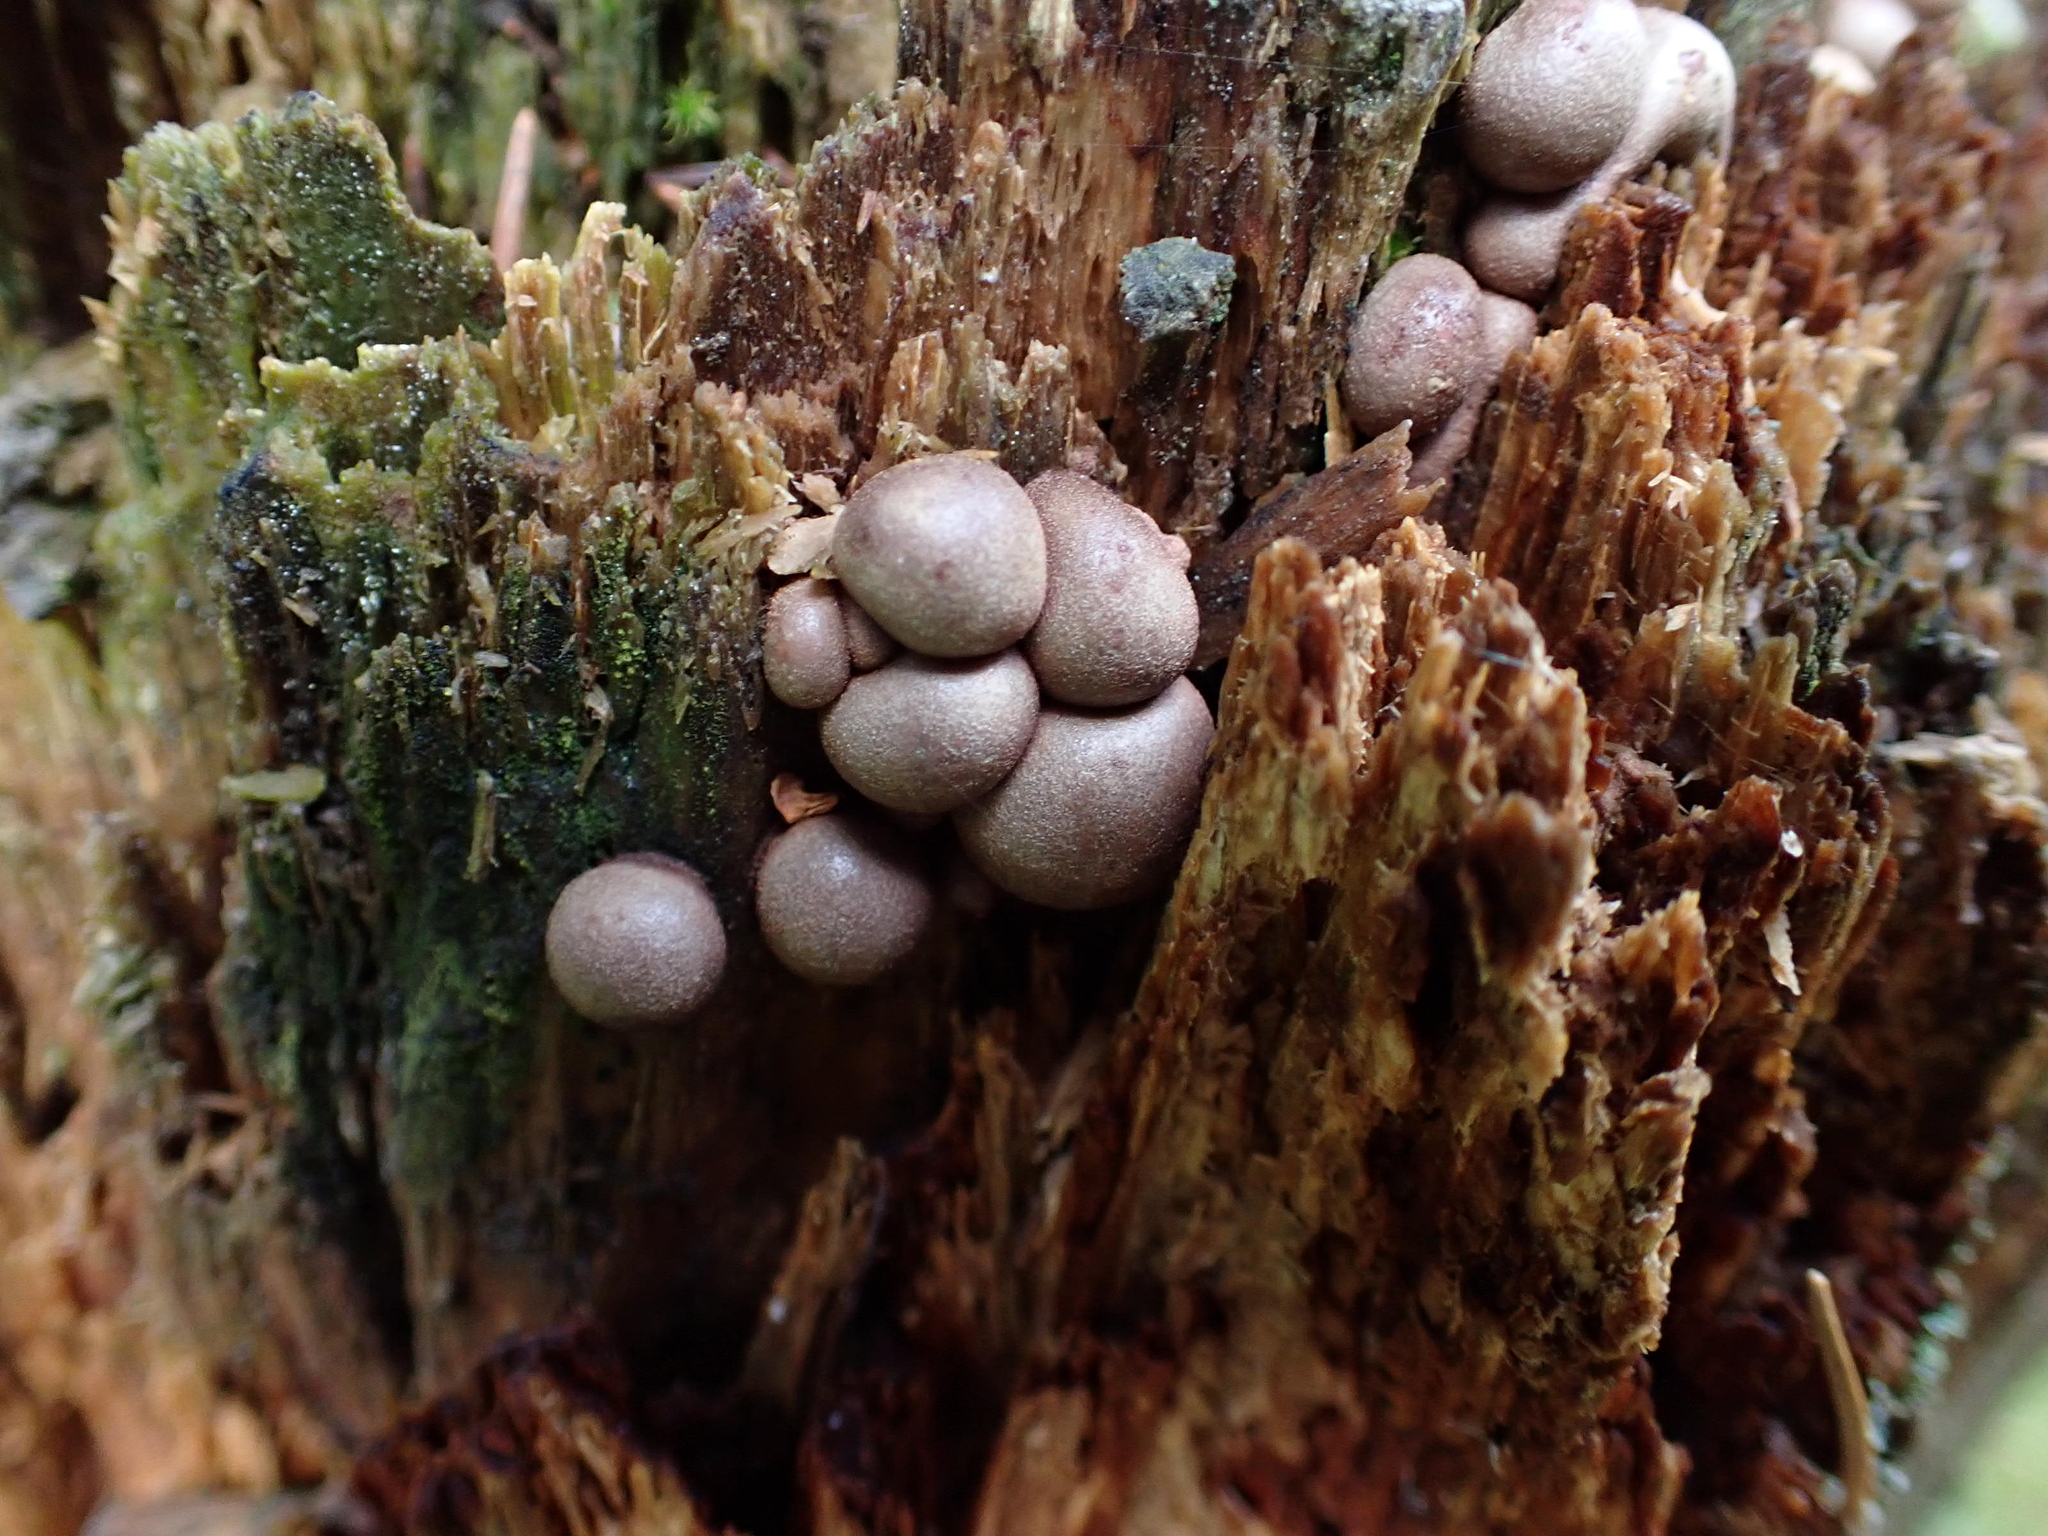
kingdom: Protozoa
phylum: Mycetozoa
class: Myxomycetes
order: Cribrariales
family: Tubiferaceae
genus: Lycogala
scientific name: Lycogala epidendrum
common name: Wolf's milk
